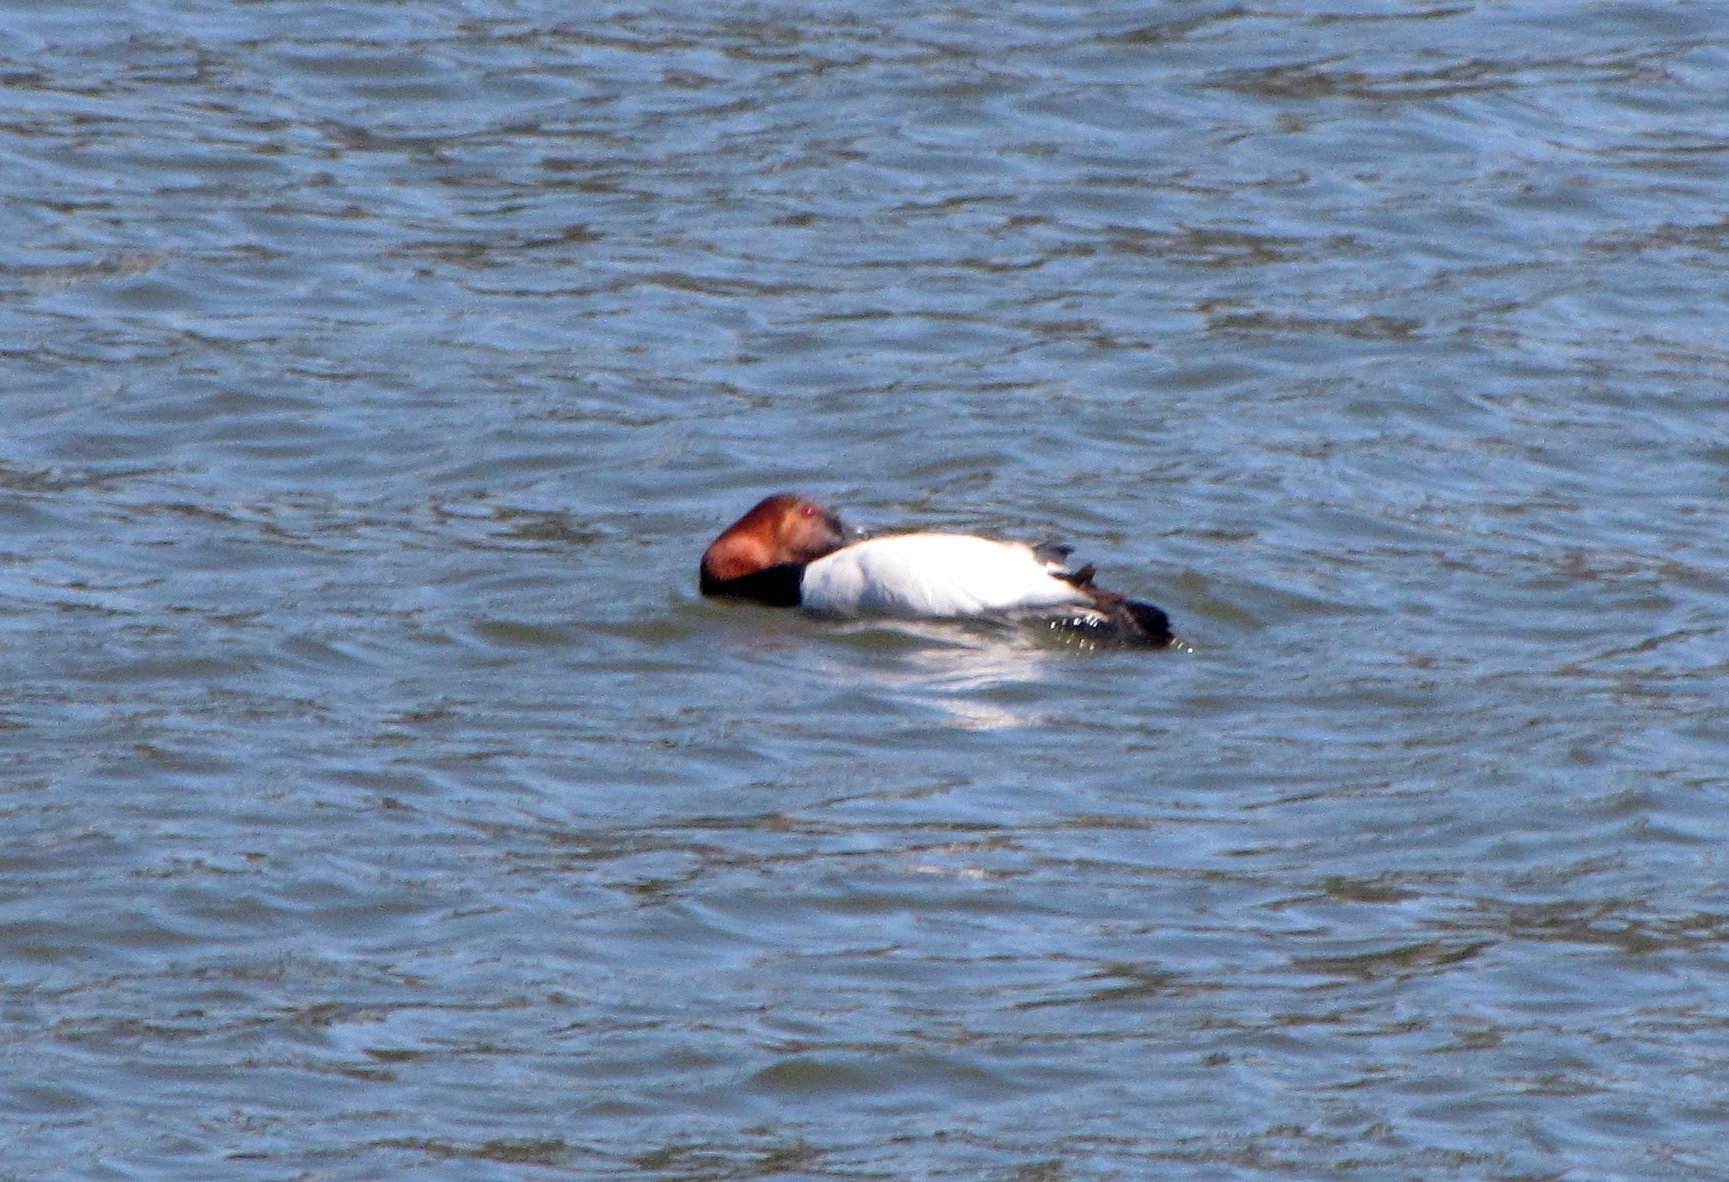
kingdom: Animalia
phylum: Chordata
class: Aves
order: Anseriformes
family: Anatidae
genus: Aythya
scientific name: Aythya valisineria
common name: Canvasback
